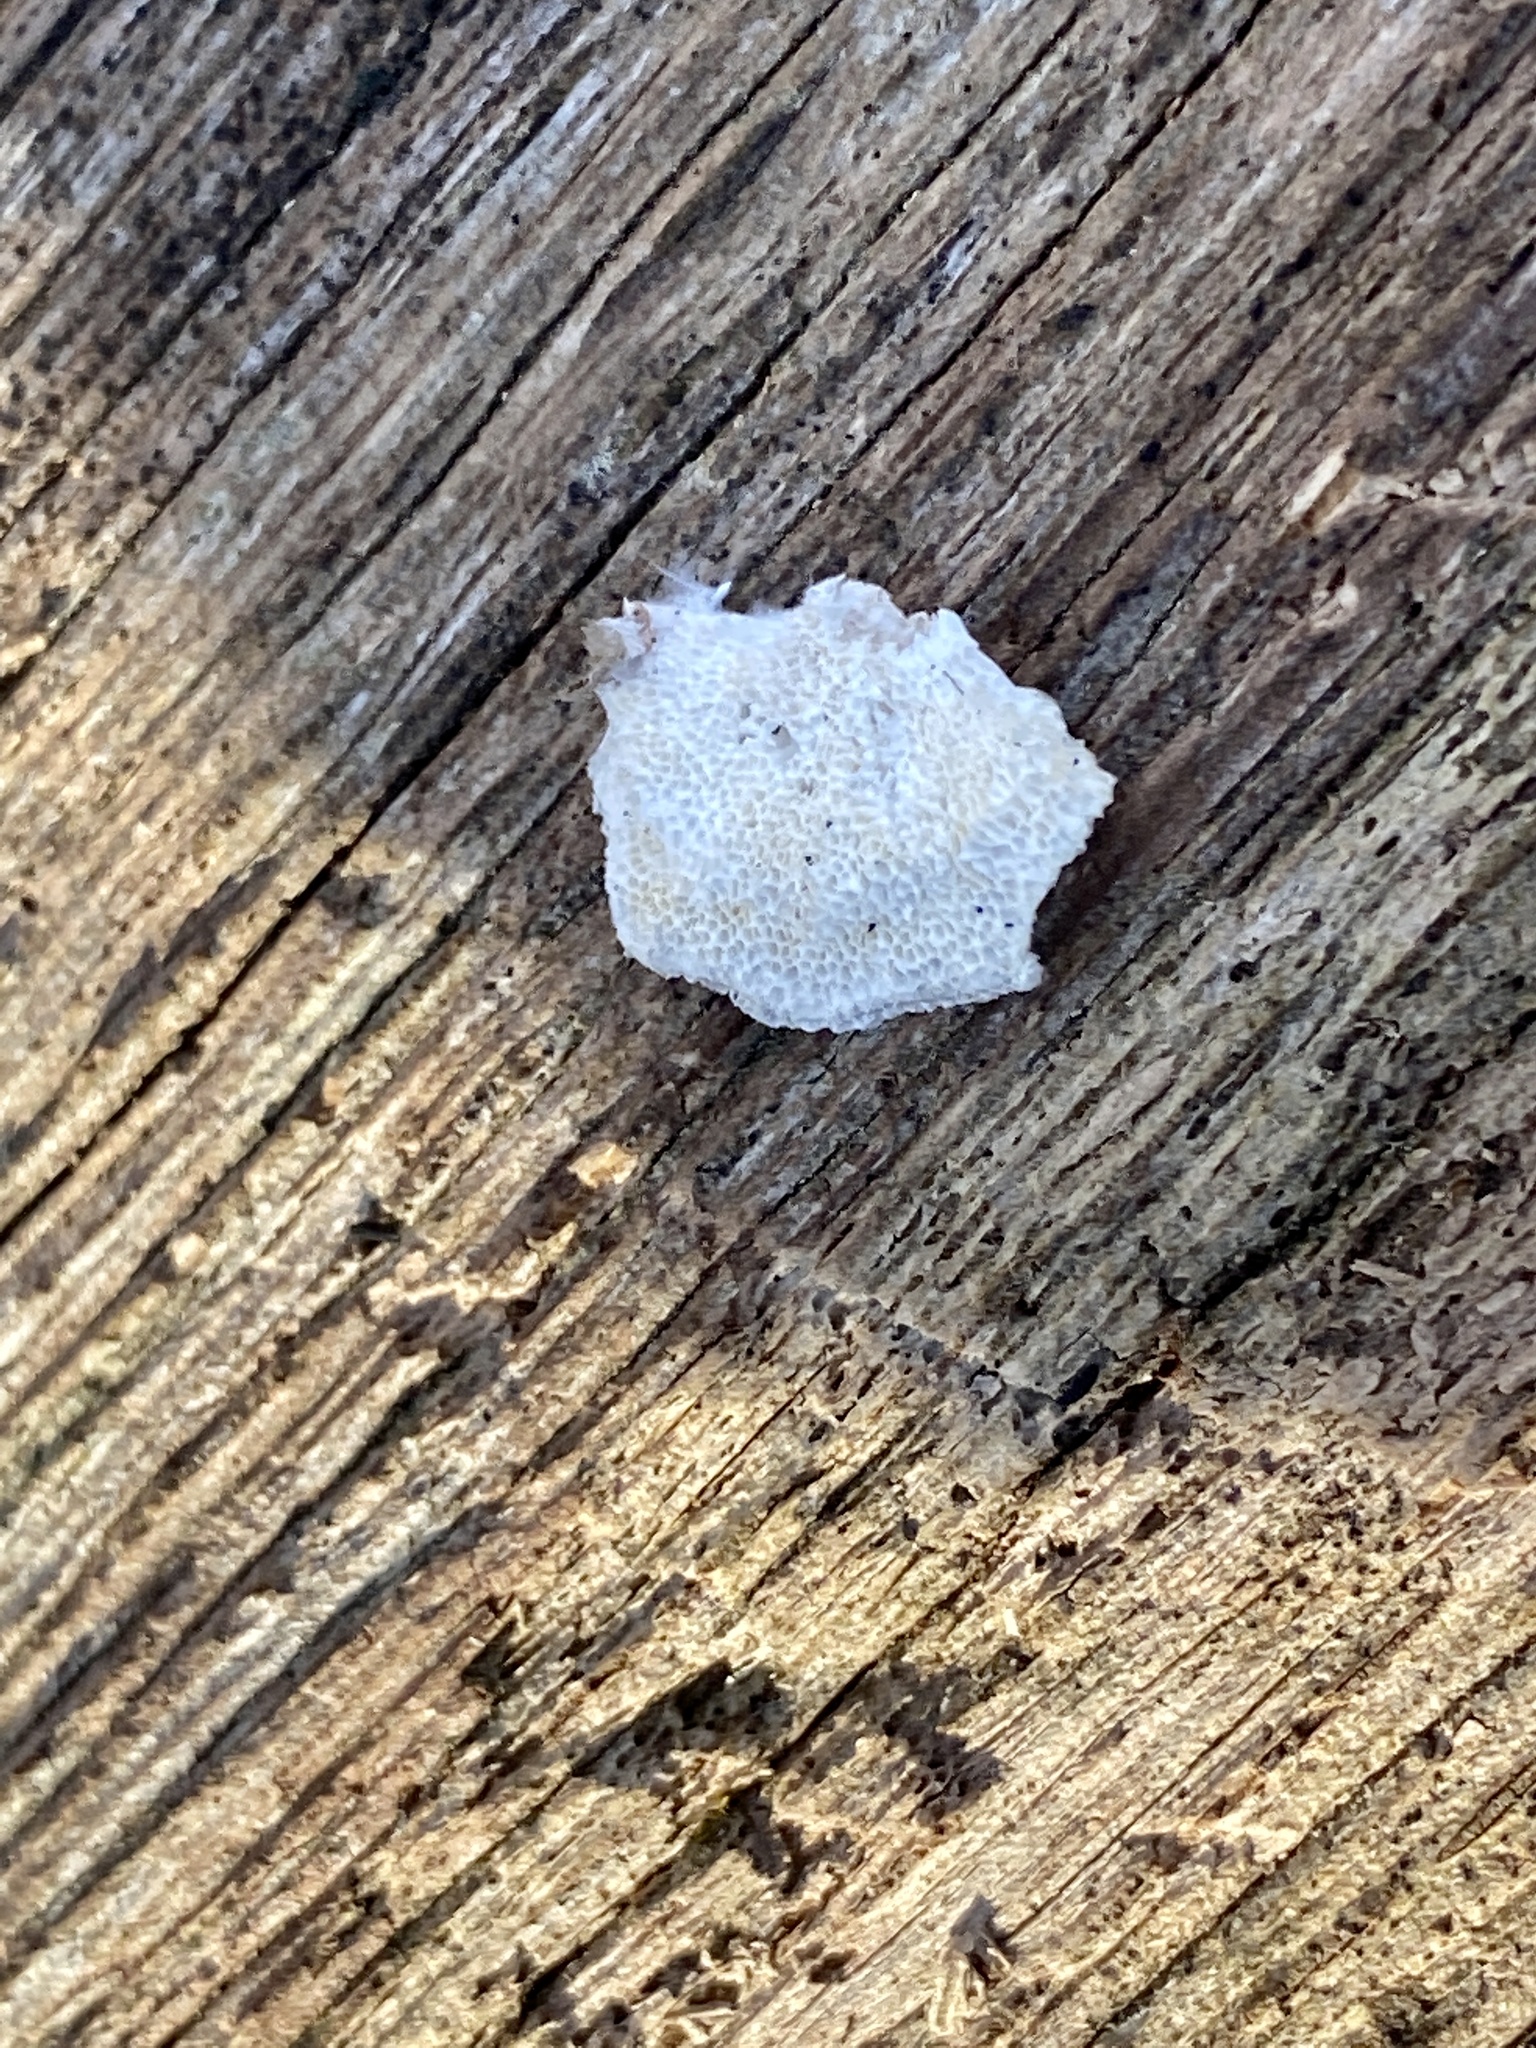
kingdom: Fungi
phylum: Basidiomycota
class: Agaricomycetes
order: Polyporales
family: Polyporaceae
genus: Poronidulus
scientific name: Poronidulus conchifer
